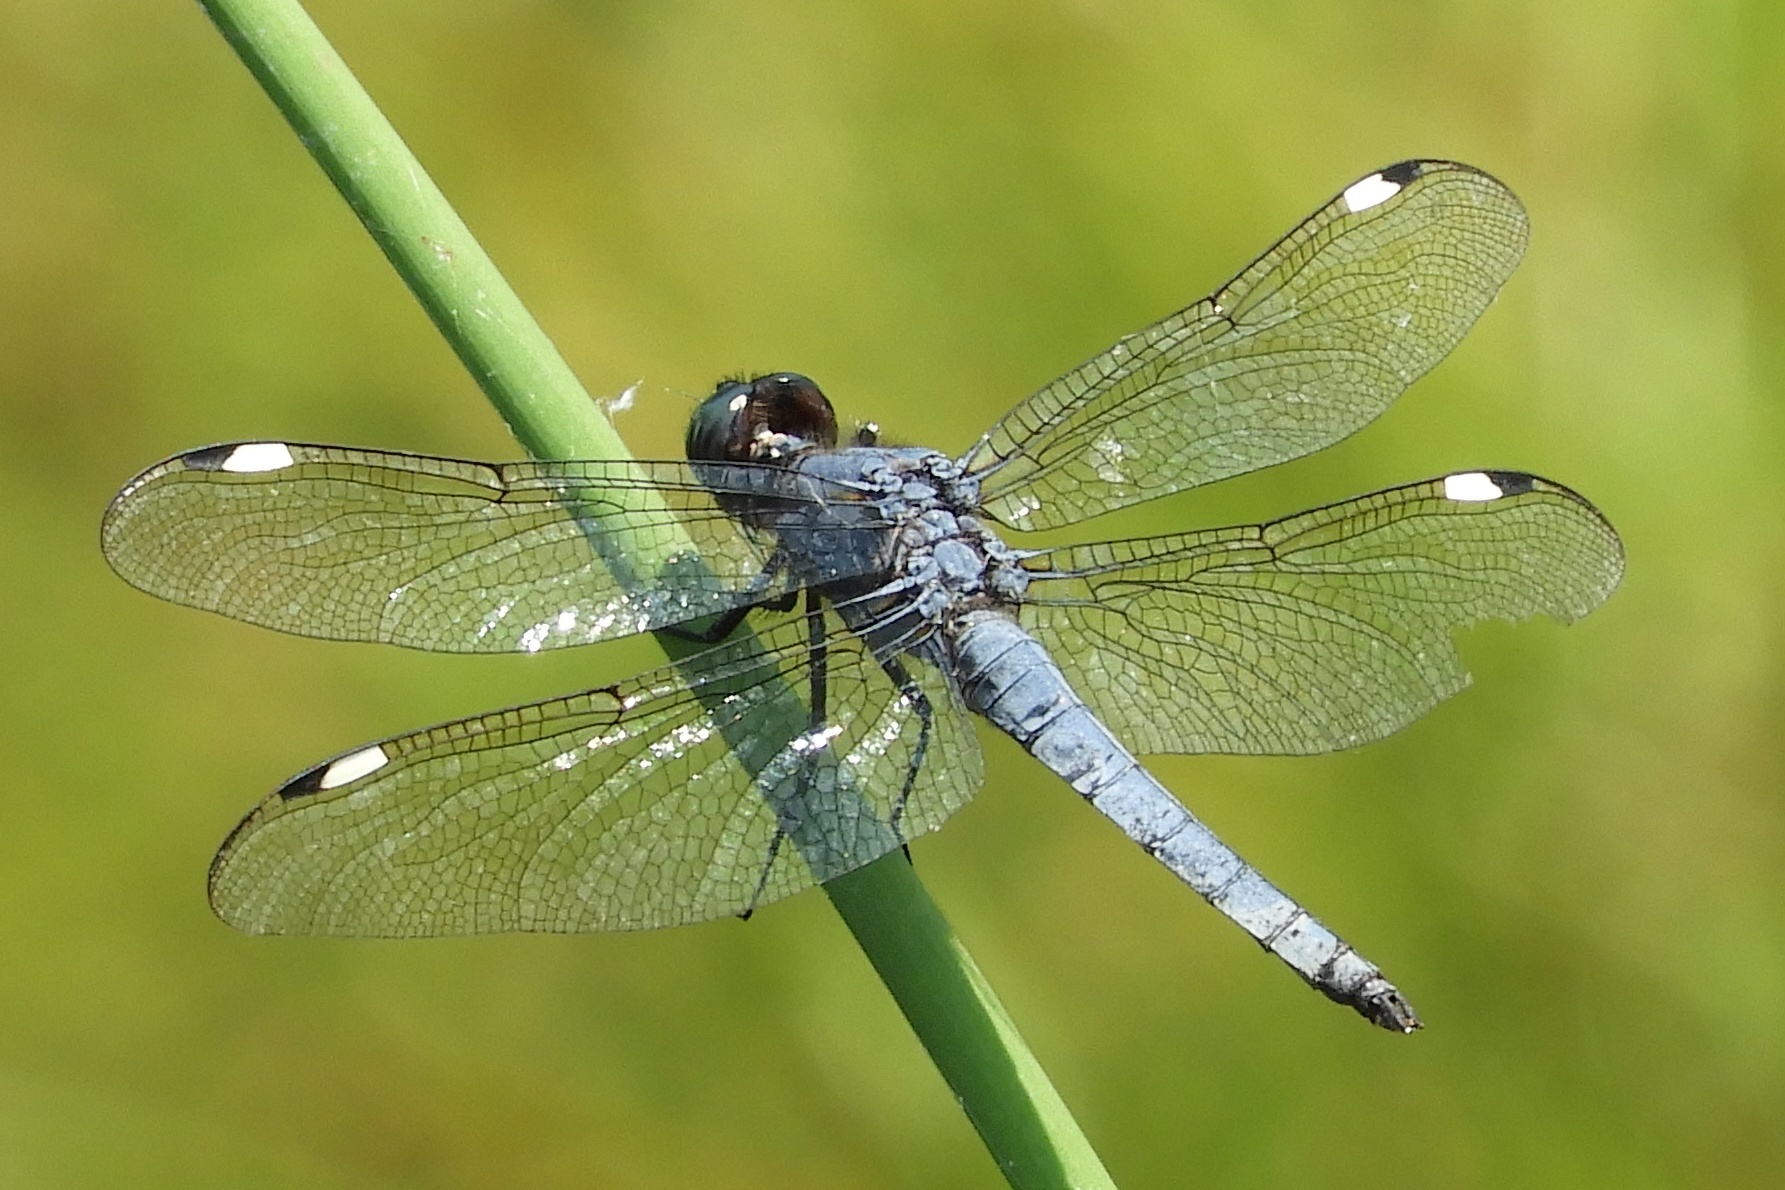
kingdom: Animalia
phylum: Arthropoda
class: Insecta
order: Odonata
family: Libellulidae
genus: Libellula
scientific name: Libellula cyanea
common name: Spangled skimmer
